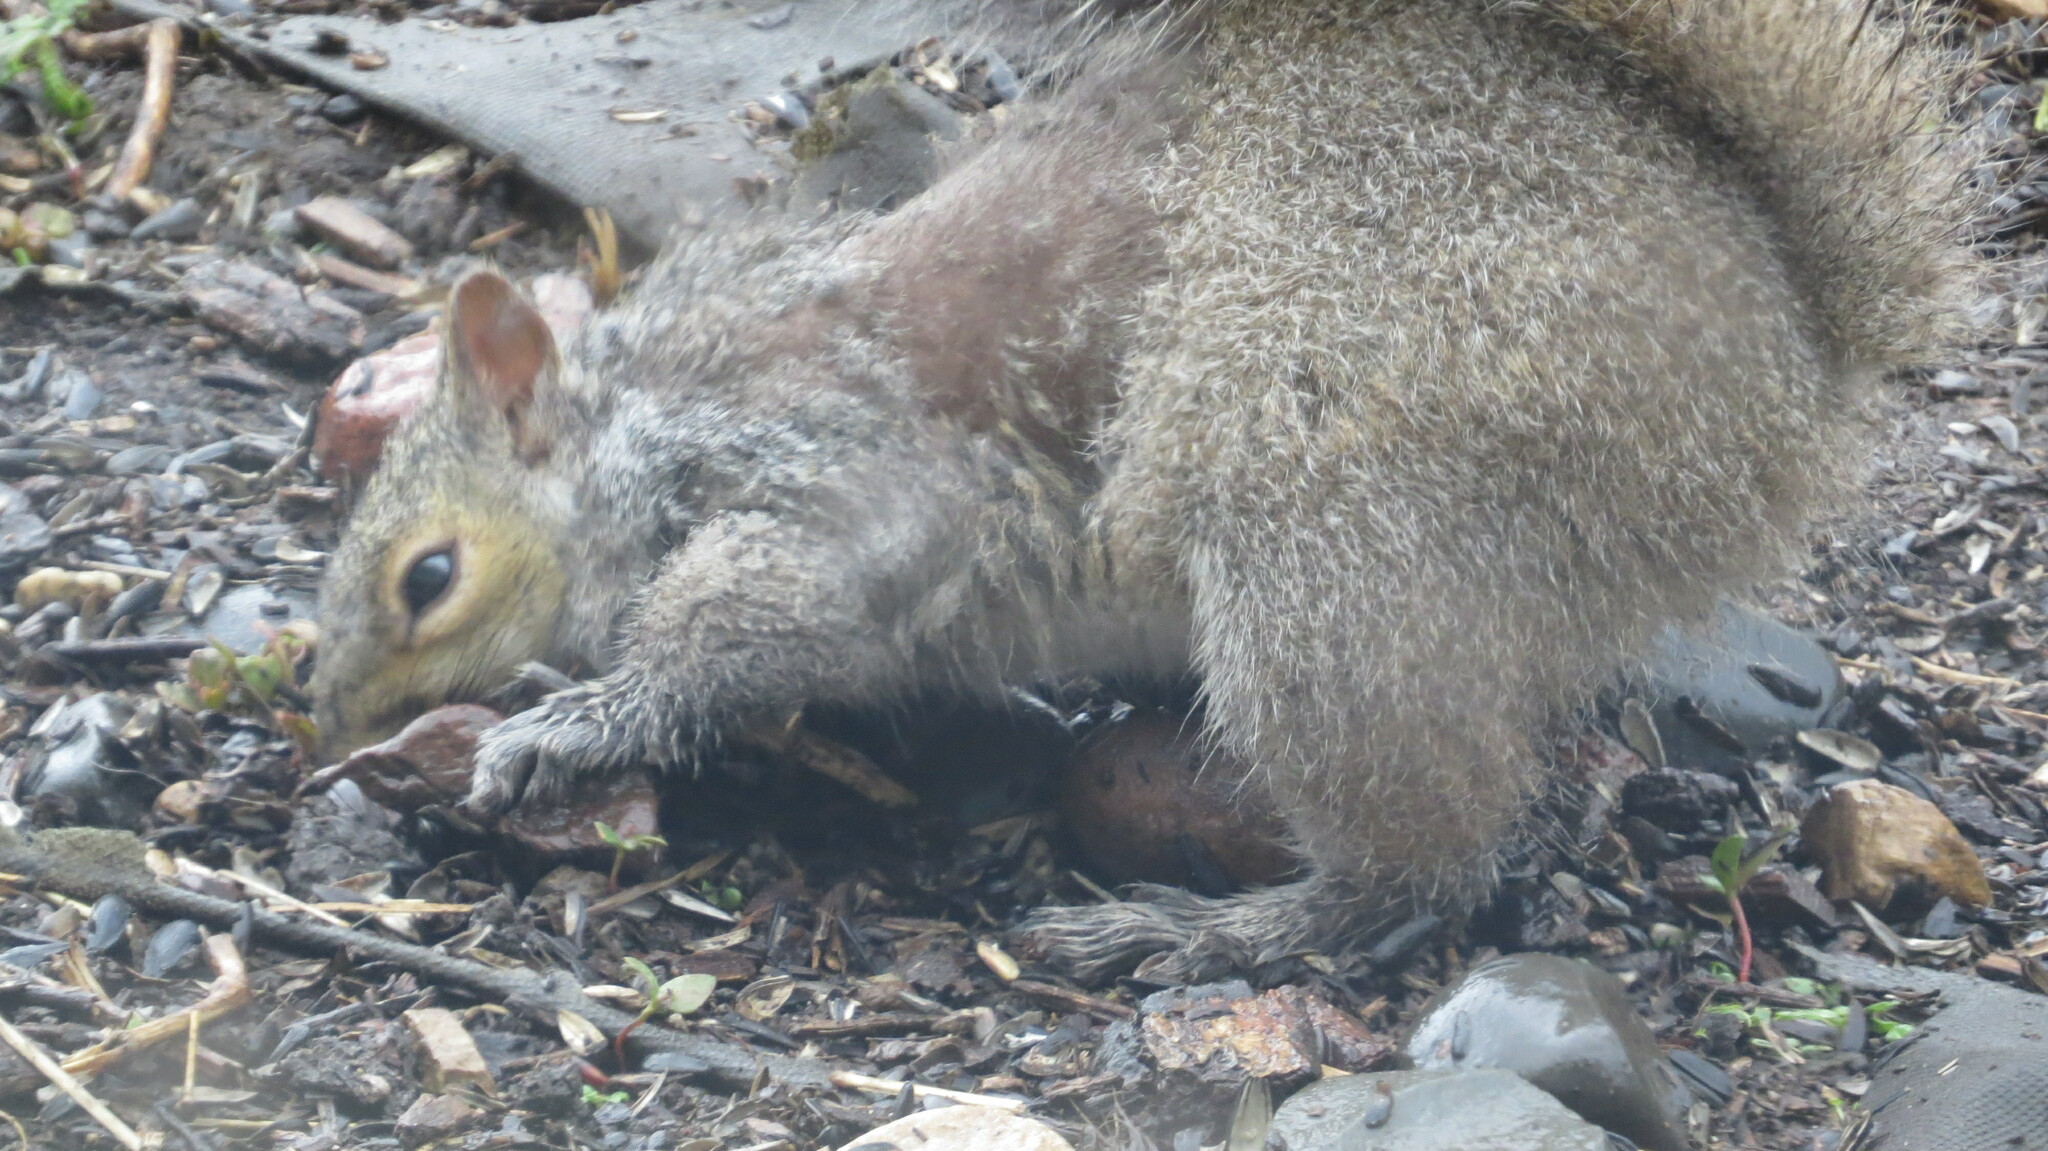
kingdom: Animalia
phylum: Chordata
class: Mammalia
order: Rodentia
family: Sciuridae
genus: Sciurus
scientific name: Sciurus carolinensis
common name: Eastern gray squirrel
